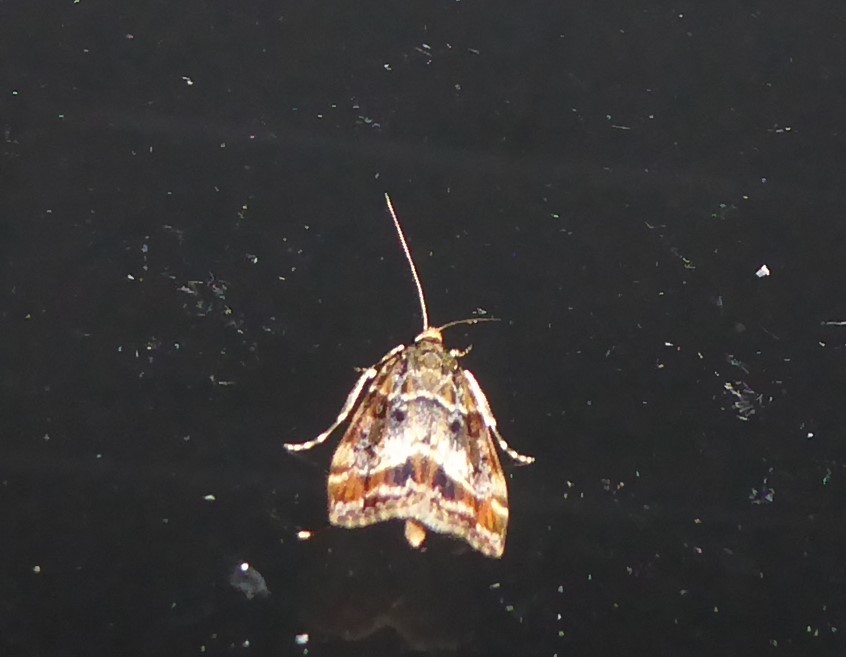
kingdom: Animalia
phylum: Arthropoda
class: Insecta
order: Lepidoptera
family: Crambidae
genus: Eudonia
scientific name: Eudonia legnota
